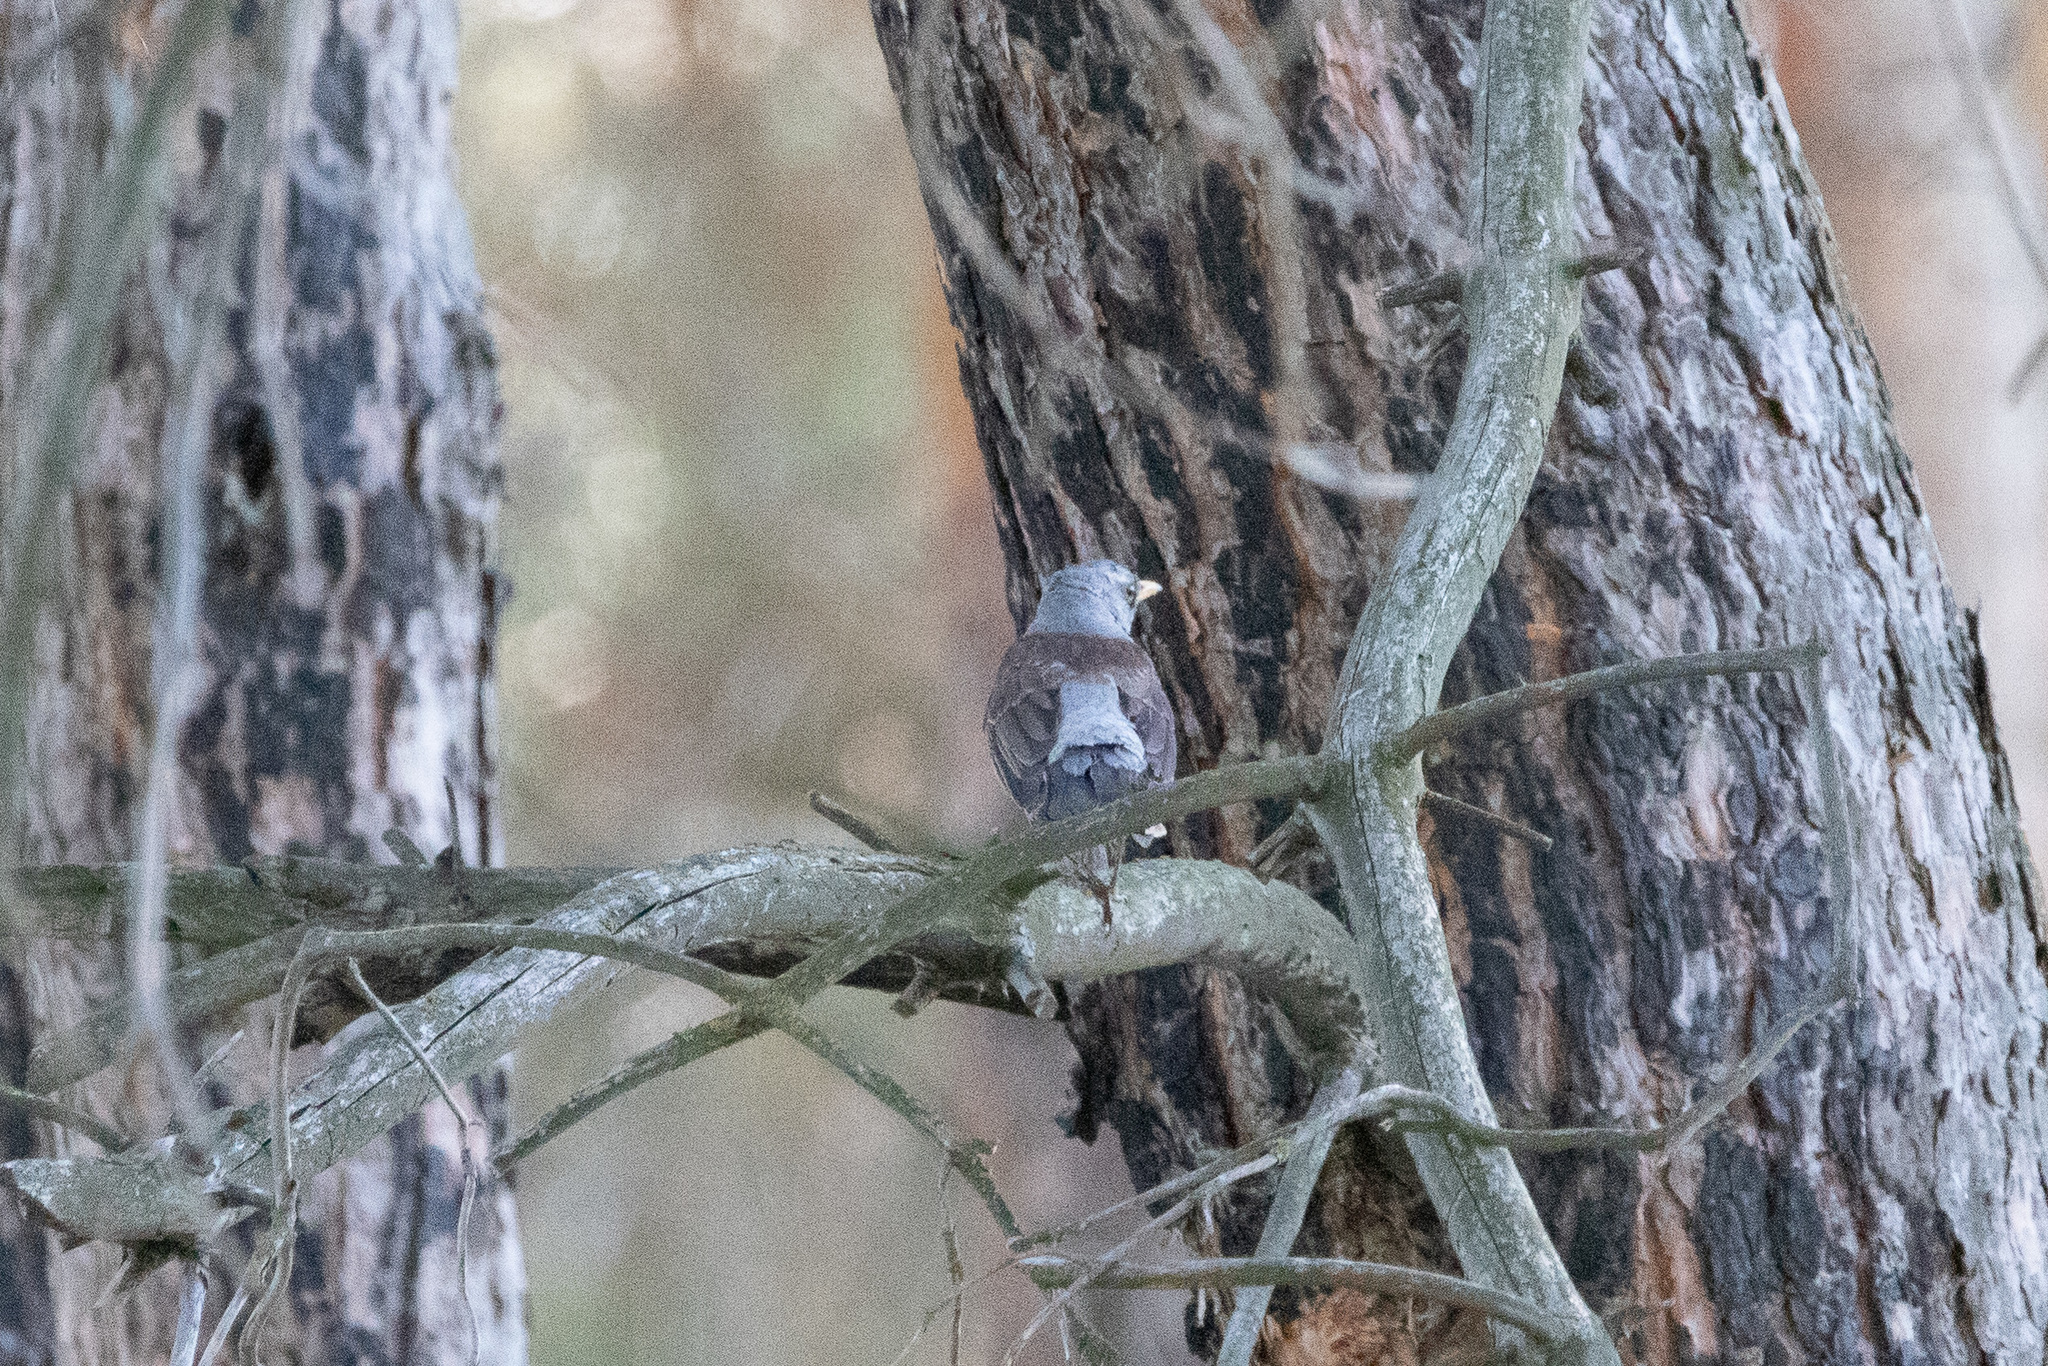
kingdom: Animalia
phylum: Chordata
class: Aves
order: Passeriformes
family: Turdidae
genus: Turdus
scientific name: Turdus pilaris
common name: Fieldfare
